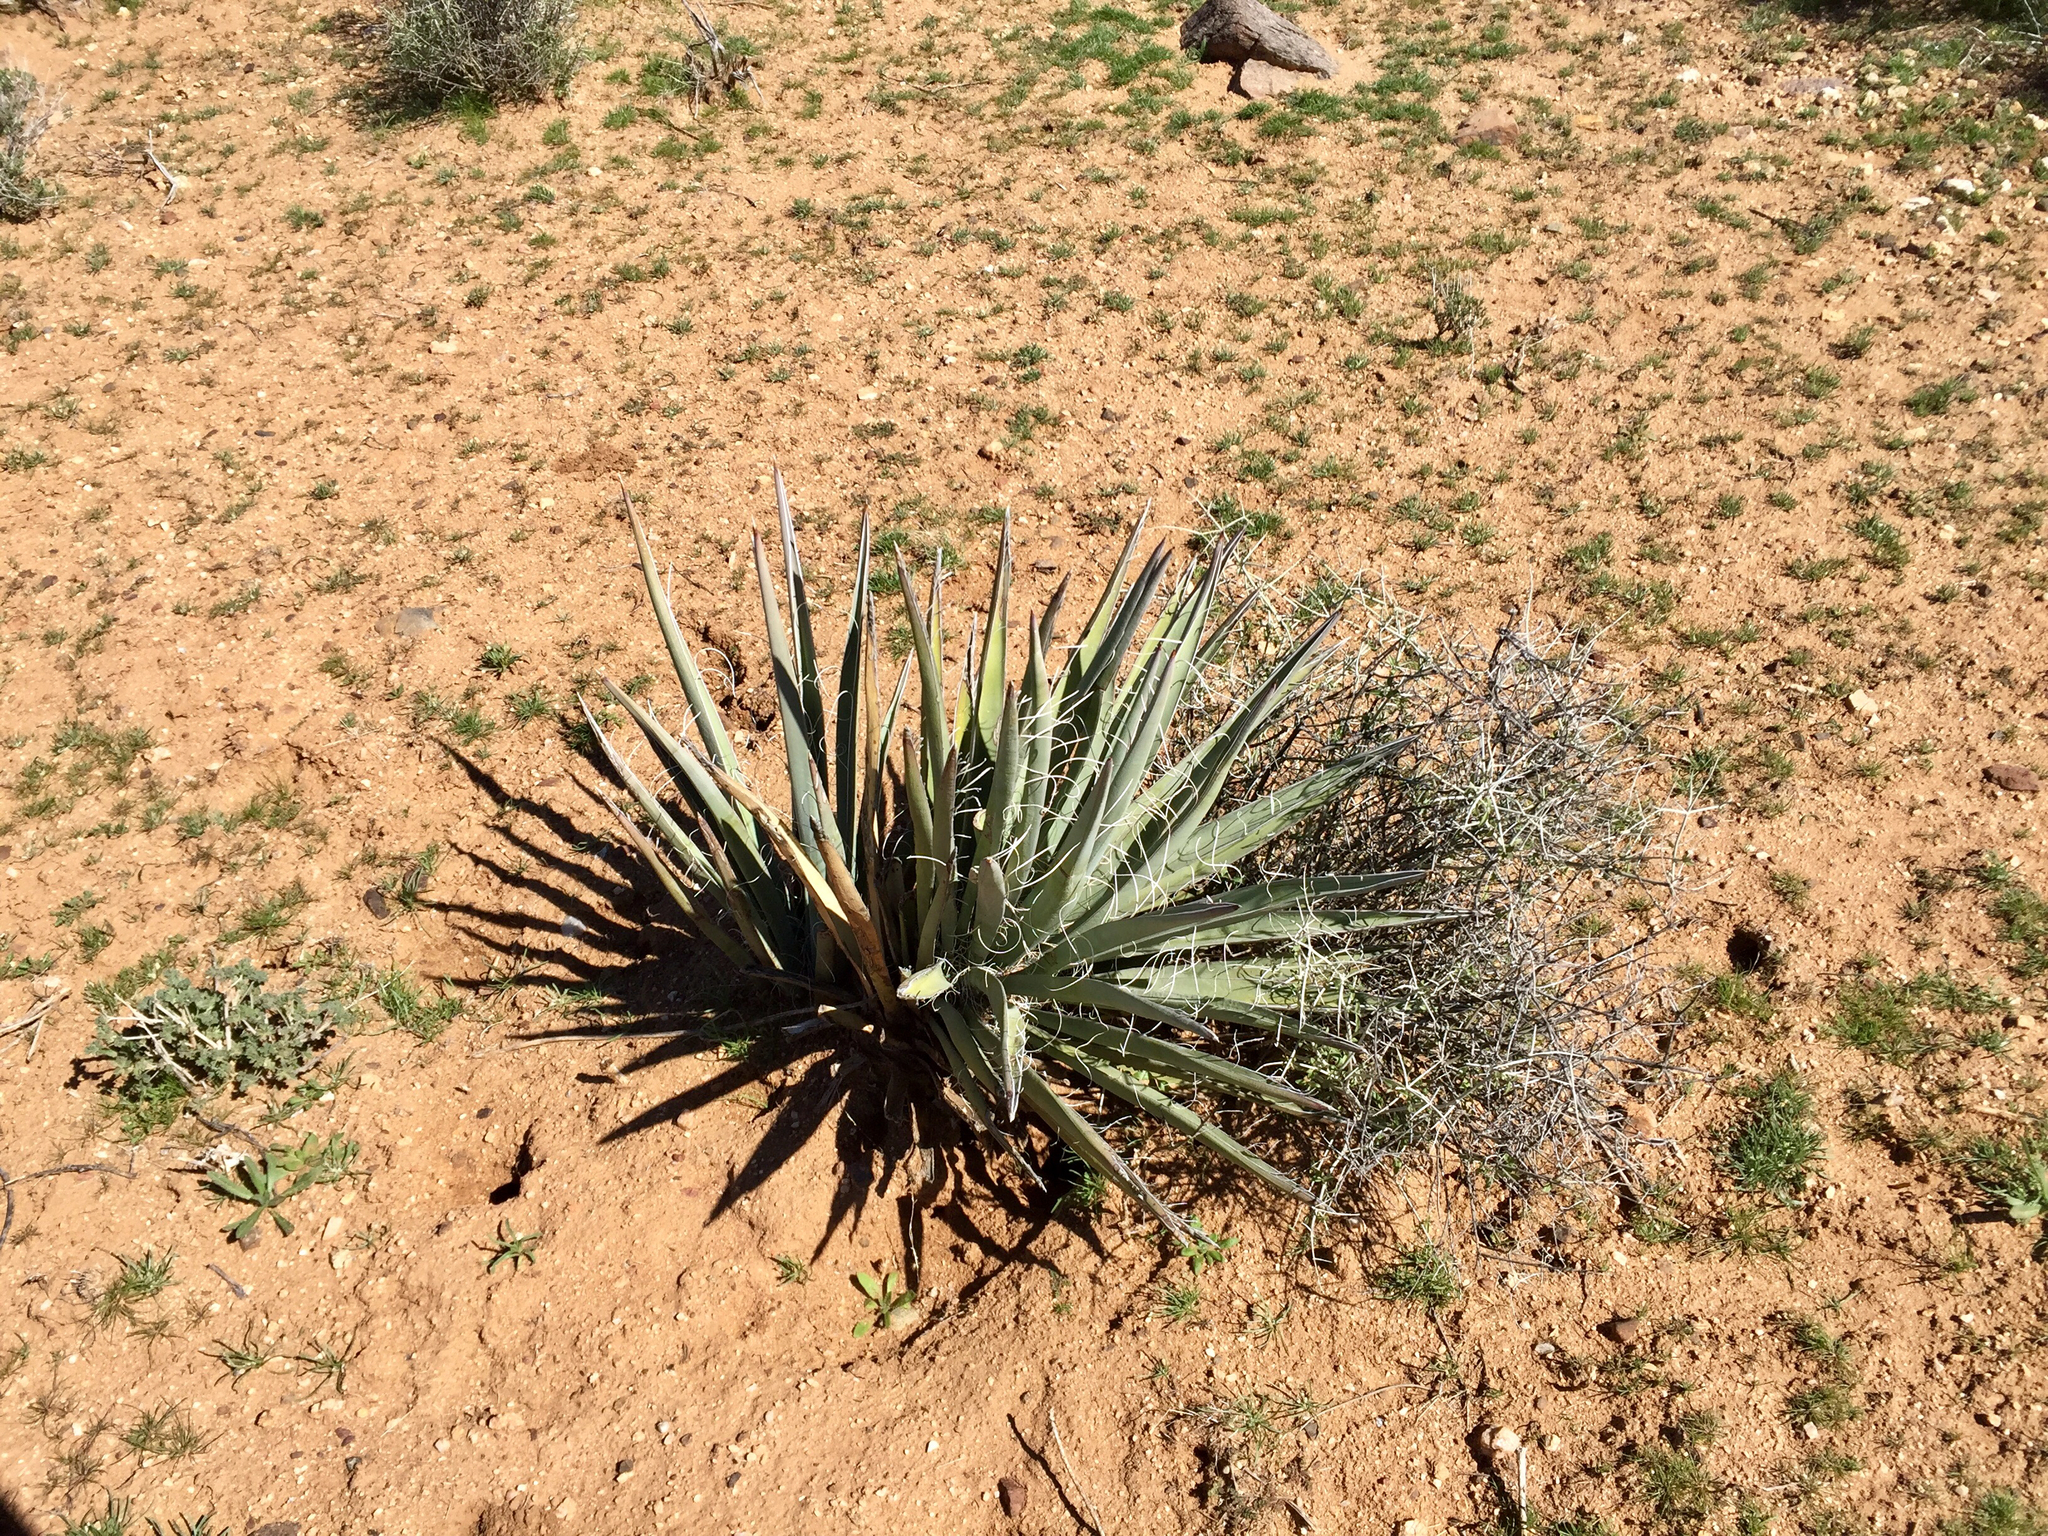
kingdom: Plantae
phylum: Tracheophyta
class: Liliopsida
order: Asparagales
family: Asparagaceae
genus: Yucca
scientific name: Yucca baccata
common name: Banana yucca
